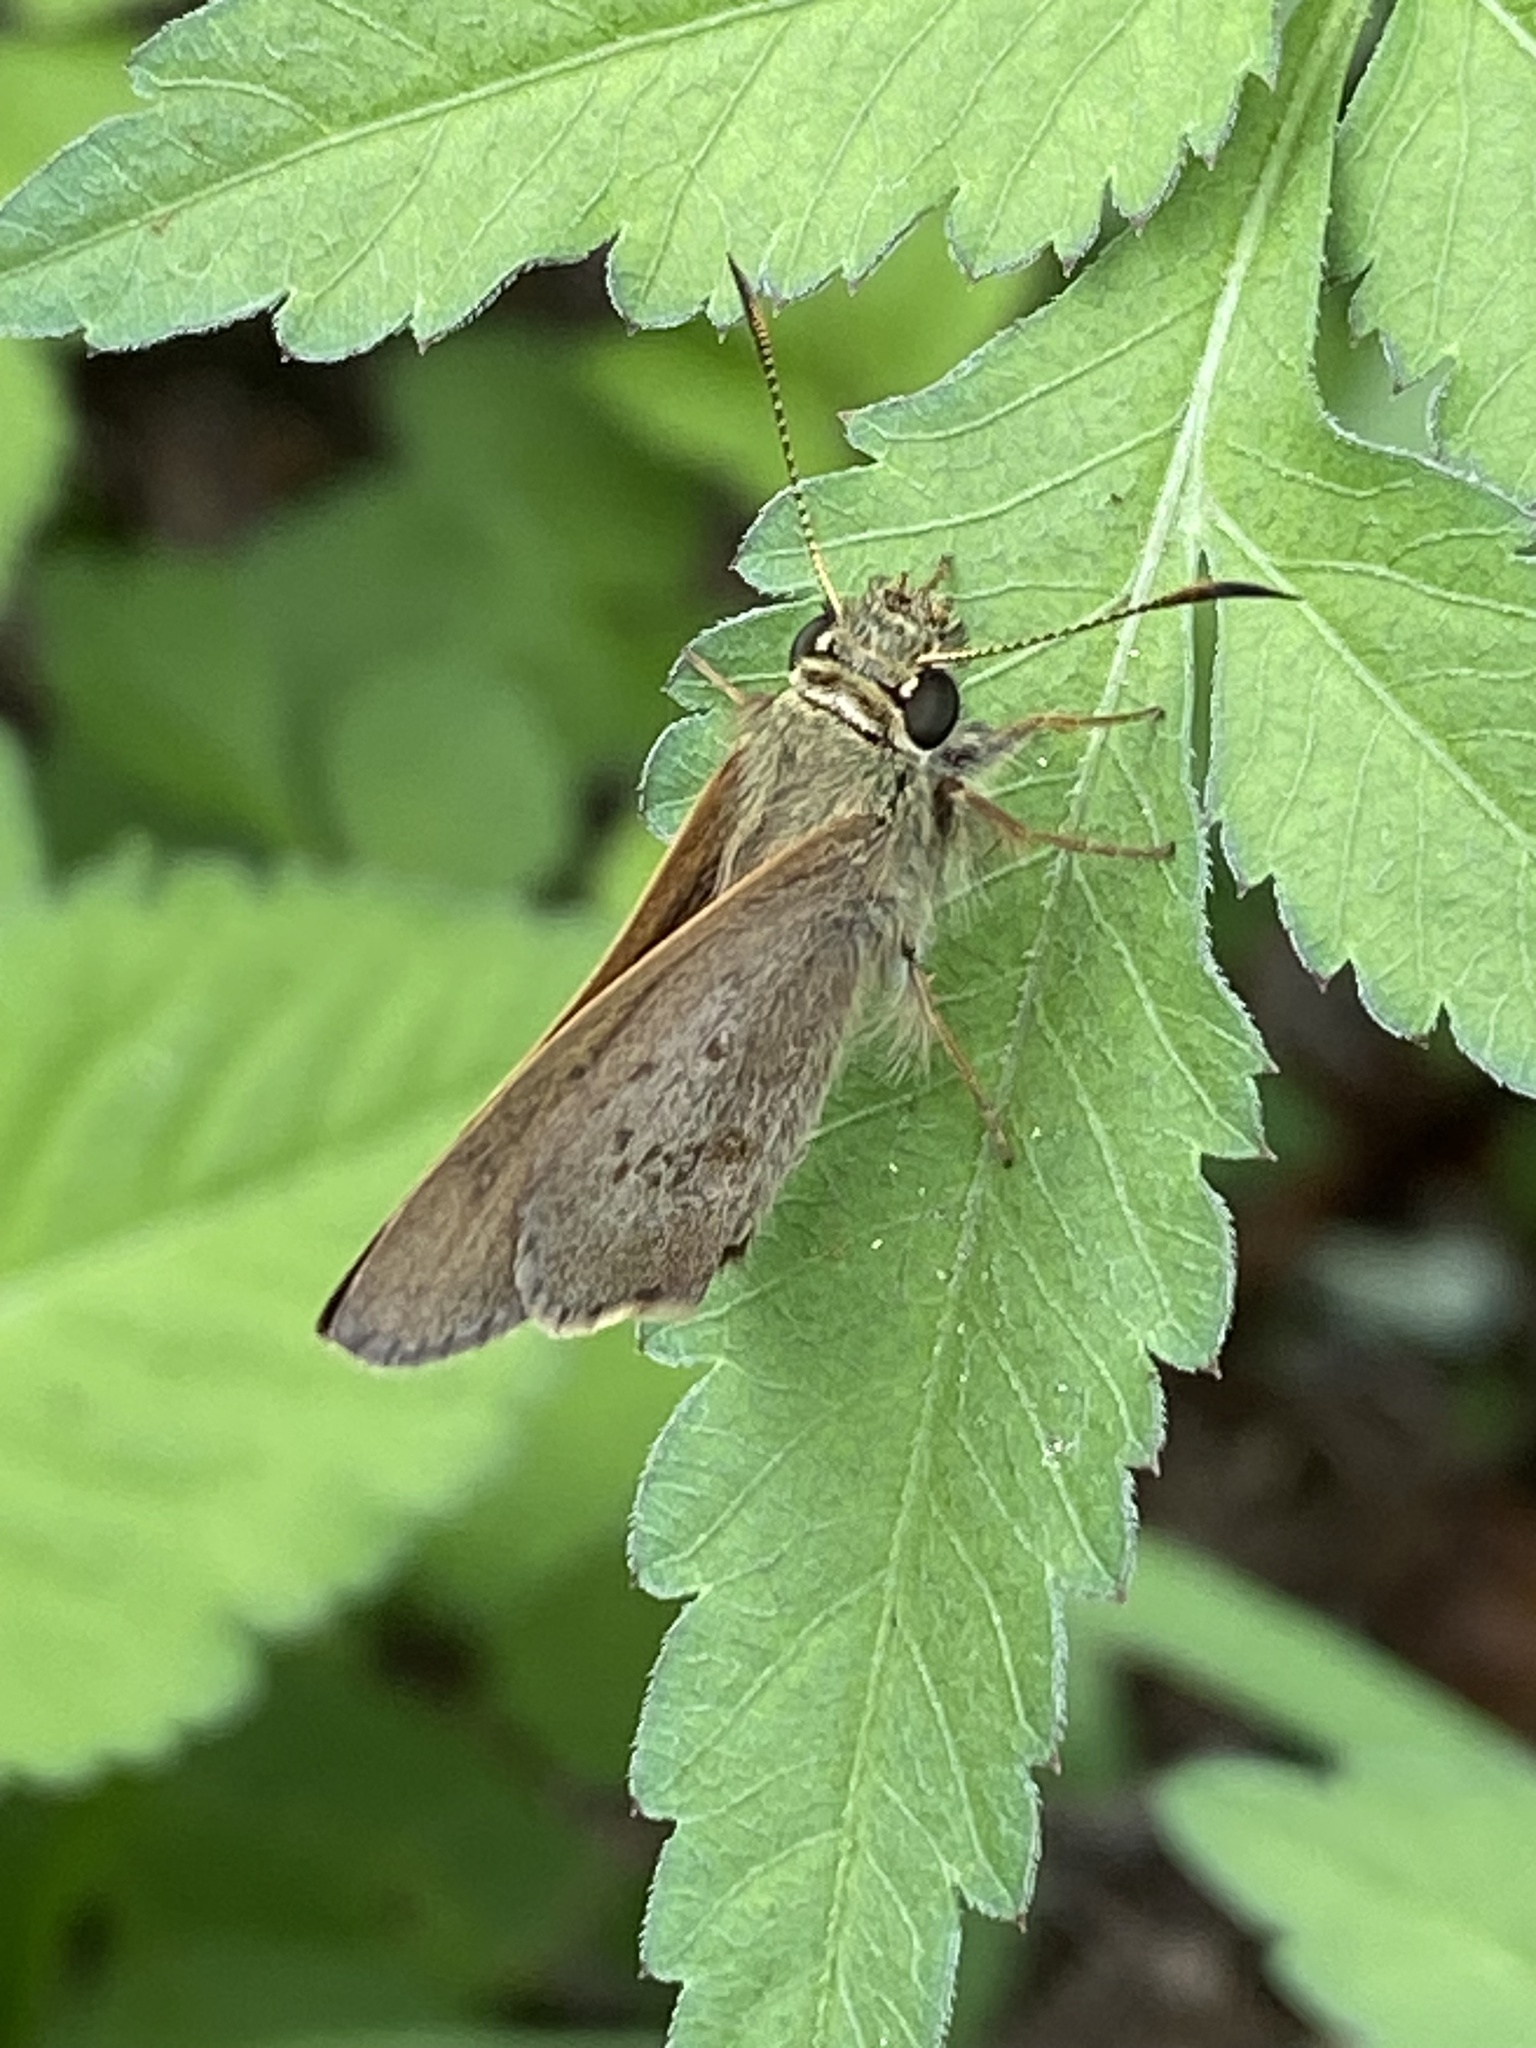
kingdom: Animalia
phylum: Arthropoda
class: Insecta
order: Lepidoptera
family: Hesperiidae
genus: Toxidia
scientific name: Toxidia
